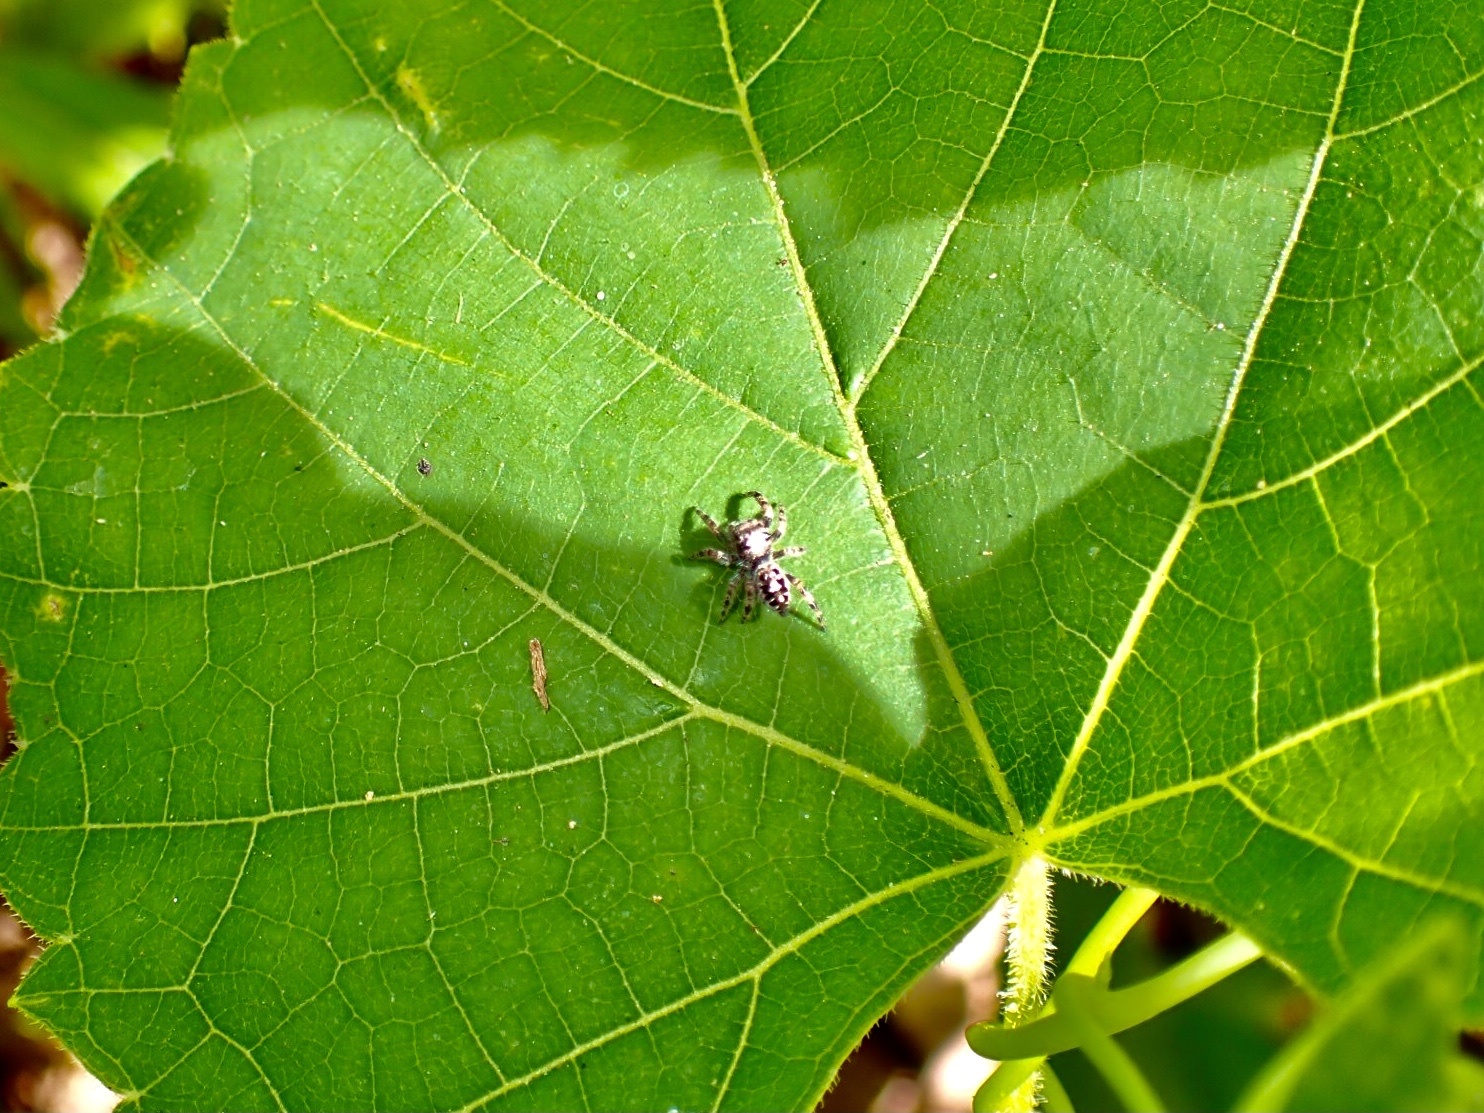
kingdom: Animalia
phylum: Arthropoda
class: Arachnida
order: Araneae
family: Salticidae
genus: Phidippus
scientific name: Phidippus putnami
